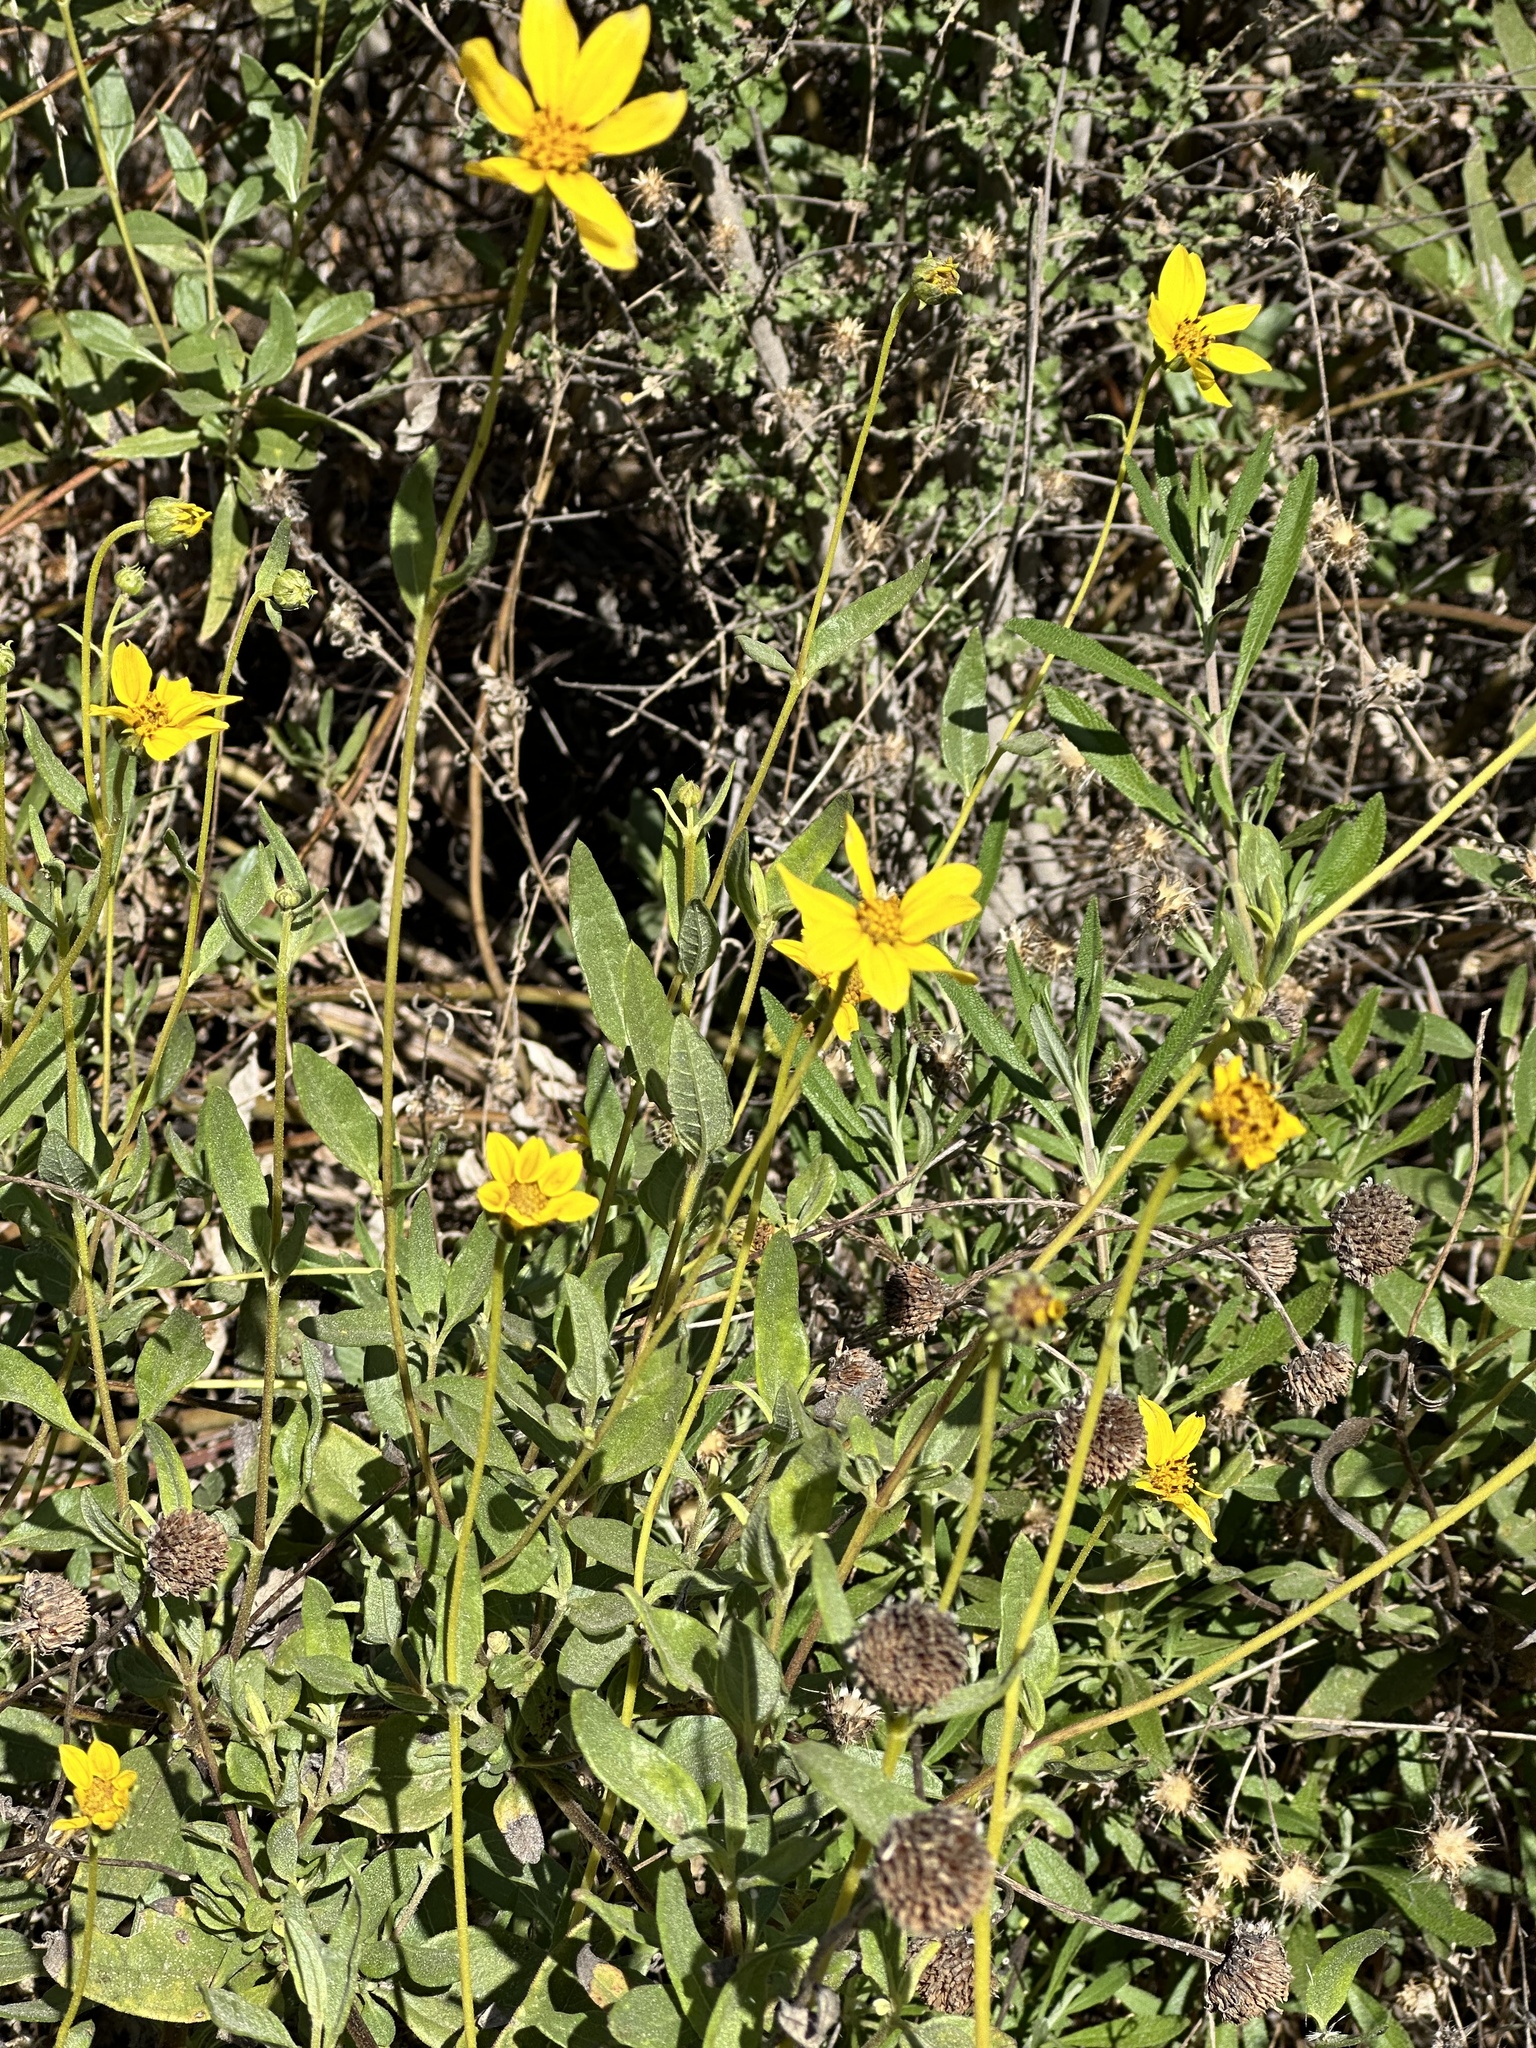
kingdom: Plantae
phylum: Tracheophyta
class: Magnoliopsida
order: Asterales
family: Asteraceae
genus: Helianthus
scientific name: Helianthus gracilentus
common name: Slender sunflower
